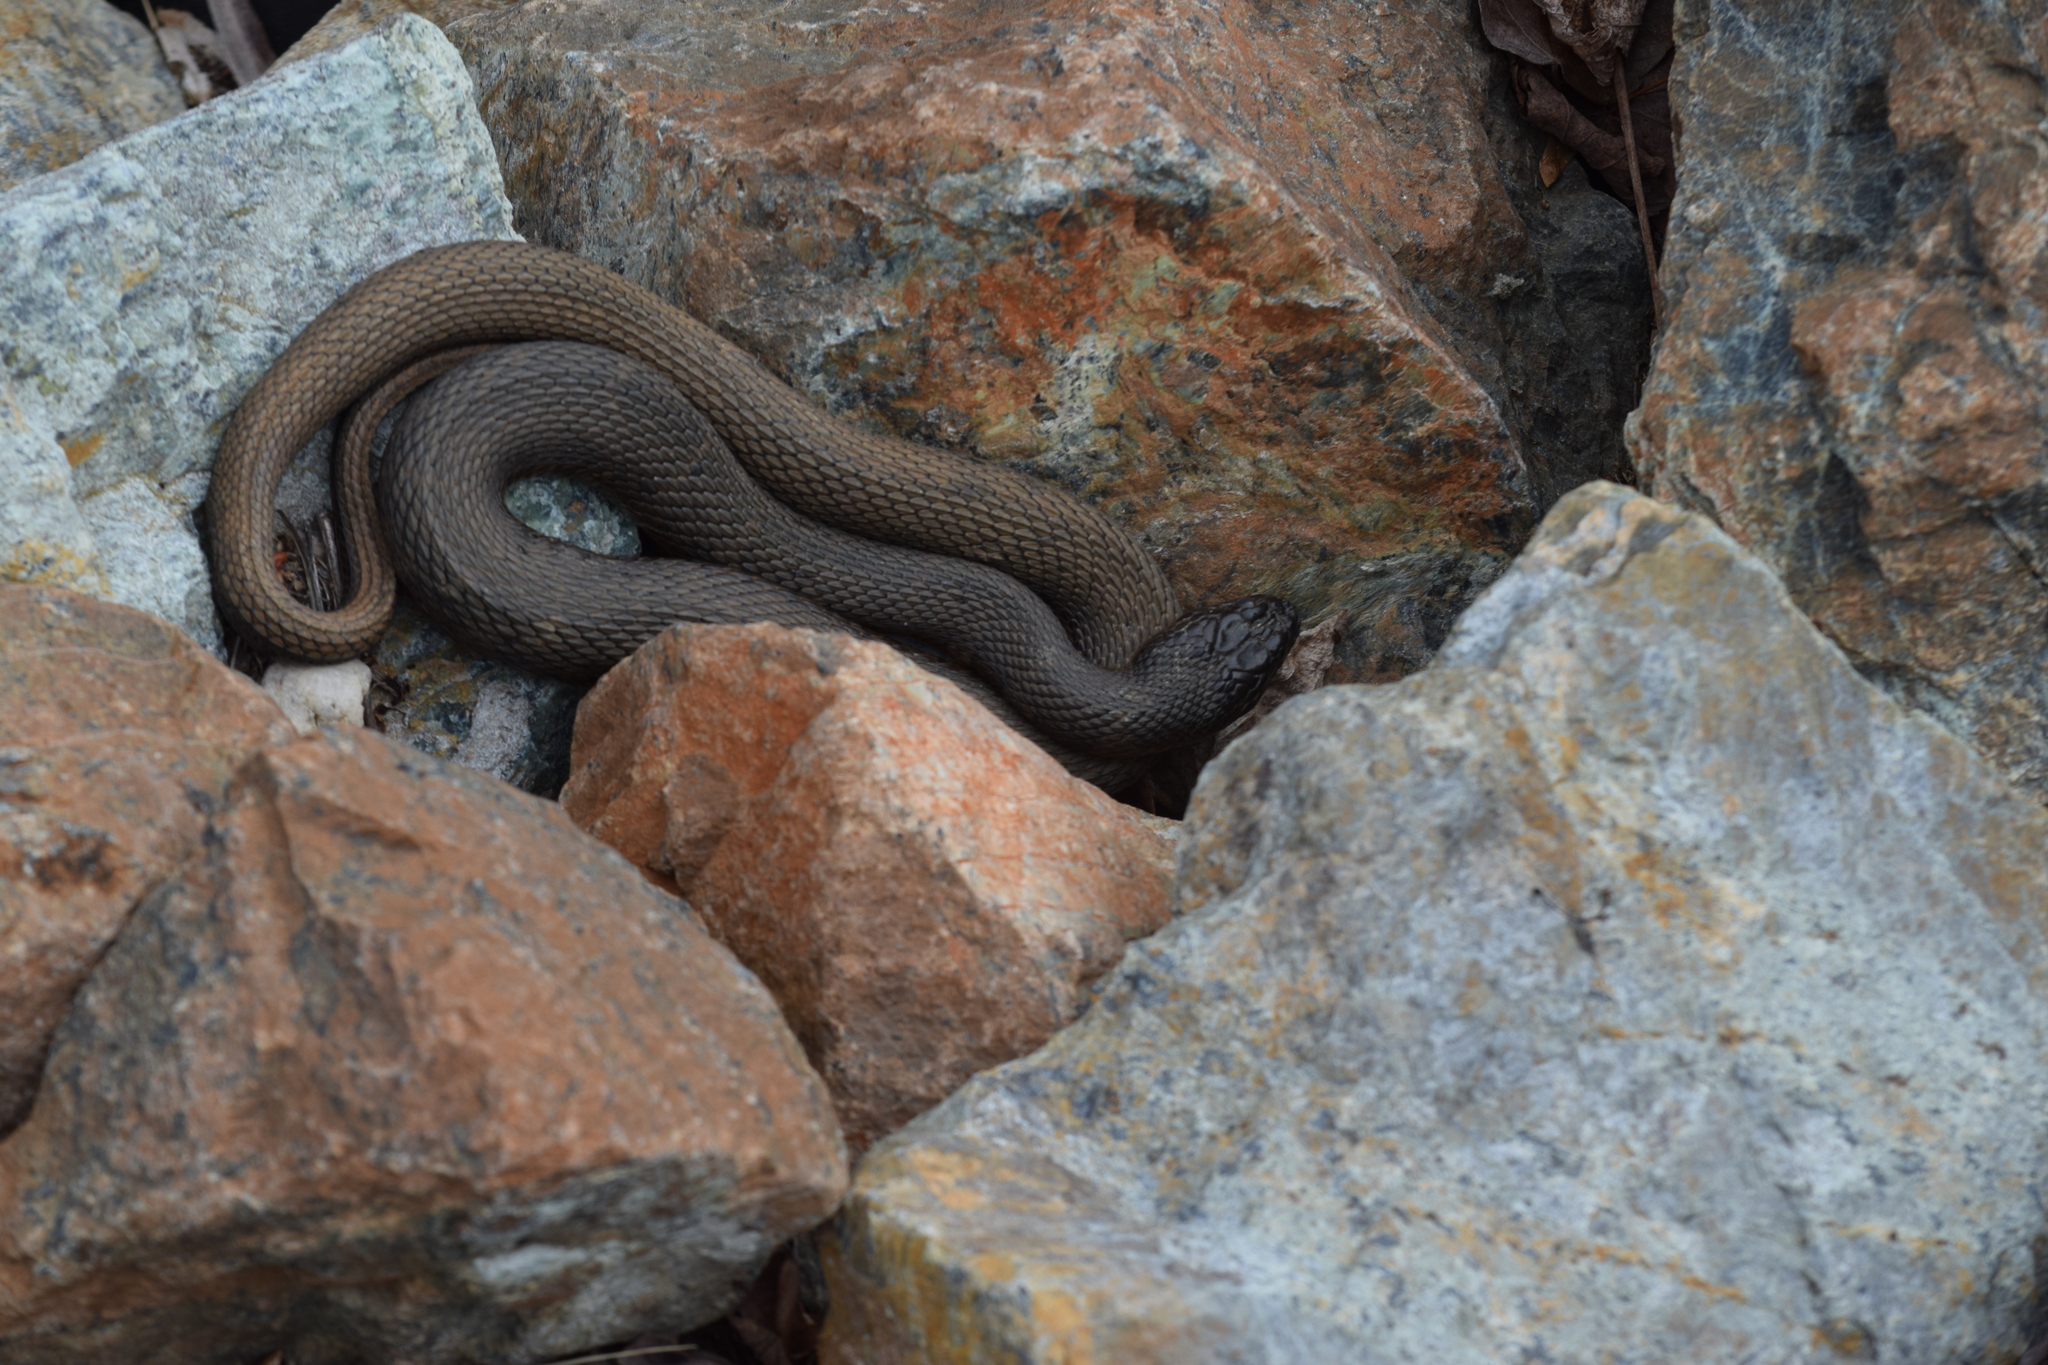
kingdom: Animalia
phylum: Chordata
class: Squamata
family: Colubridae
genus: Nerodia
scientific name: Nerodia sipedon
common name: Northern water snake
